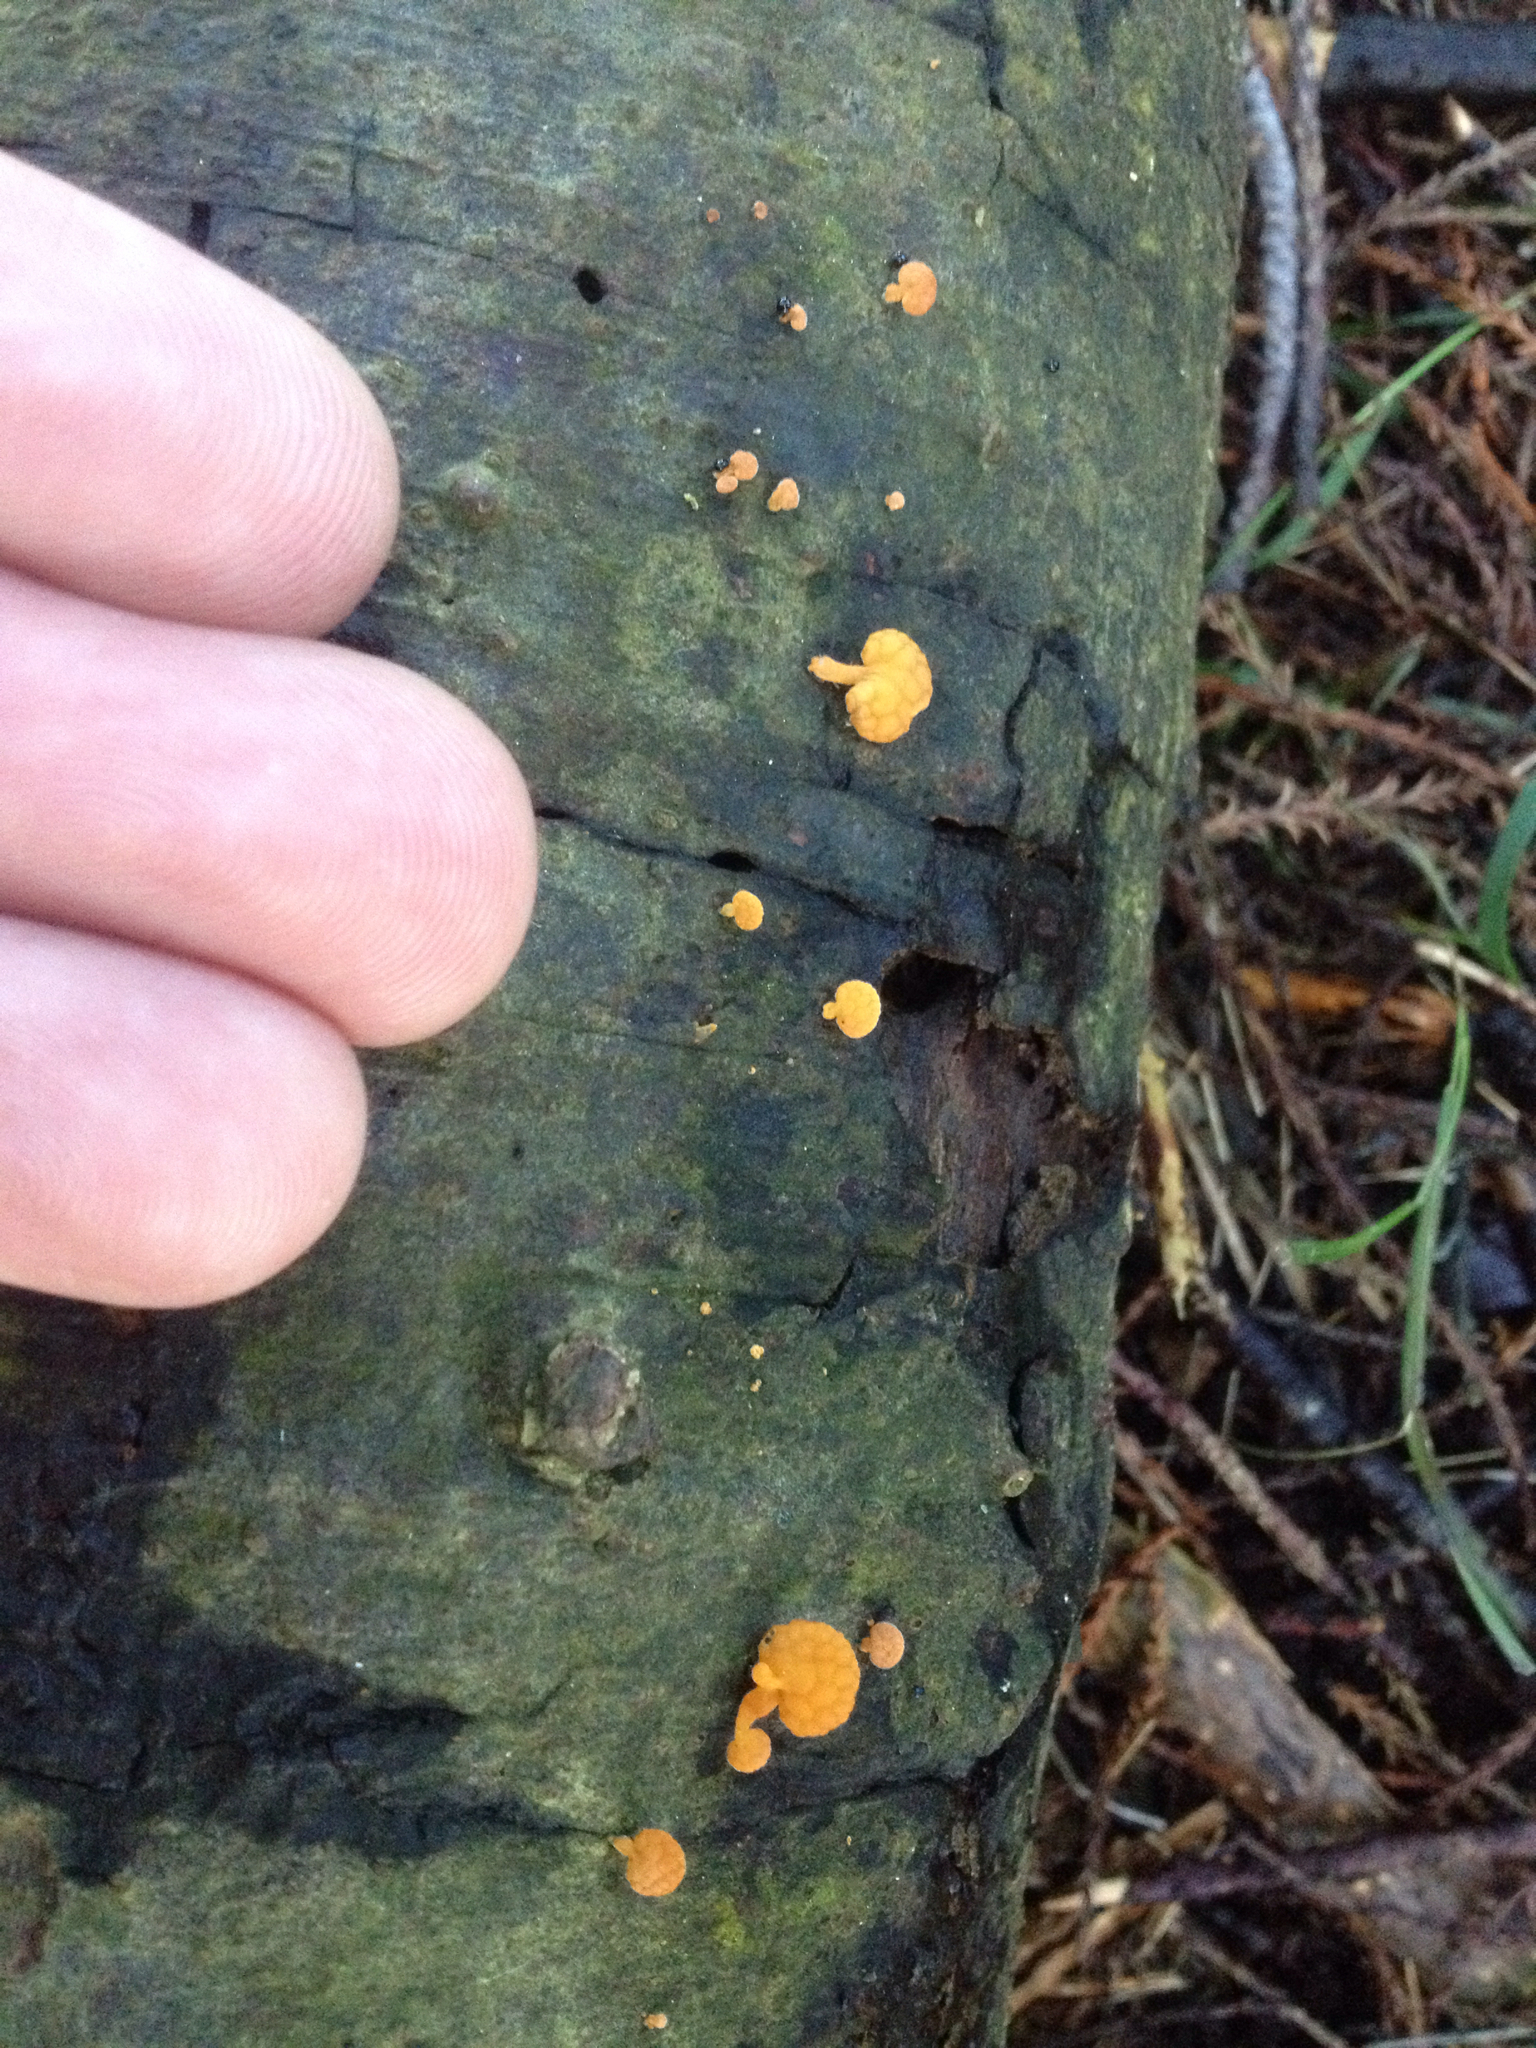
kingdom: Fungi
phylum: Basidiomycota
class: Agaricomycetes
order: Agaricales
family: Mycenaceae
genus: Favolaschia
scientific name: Favolaschia claudopus
